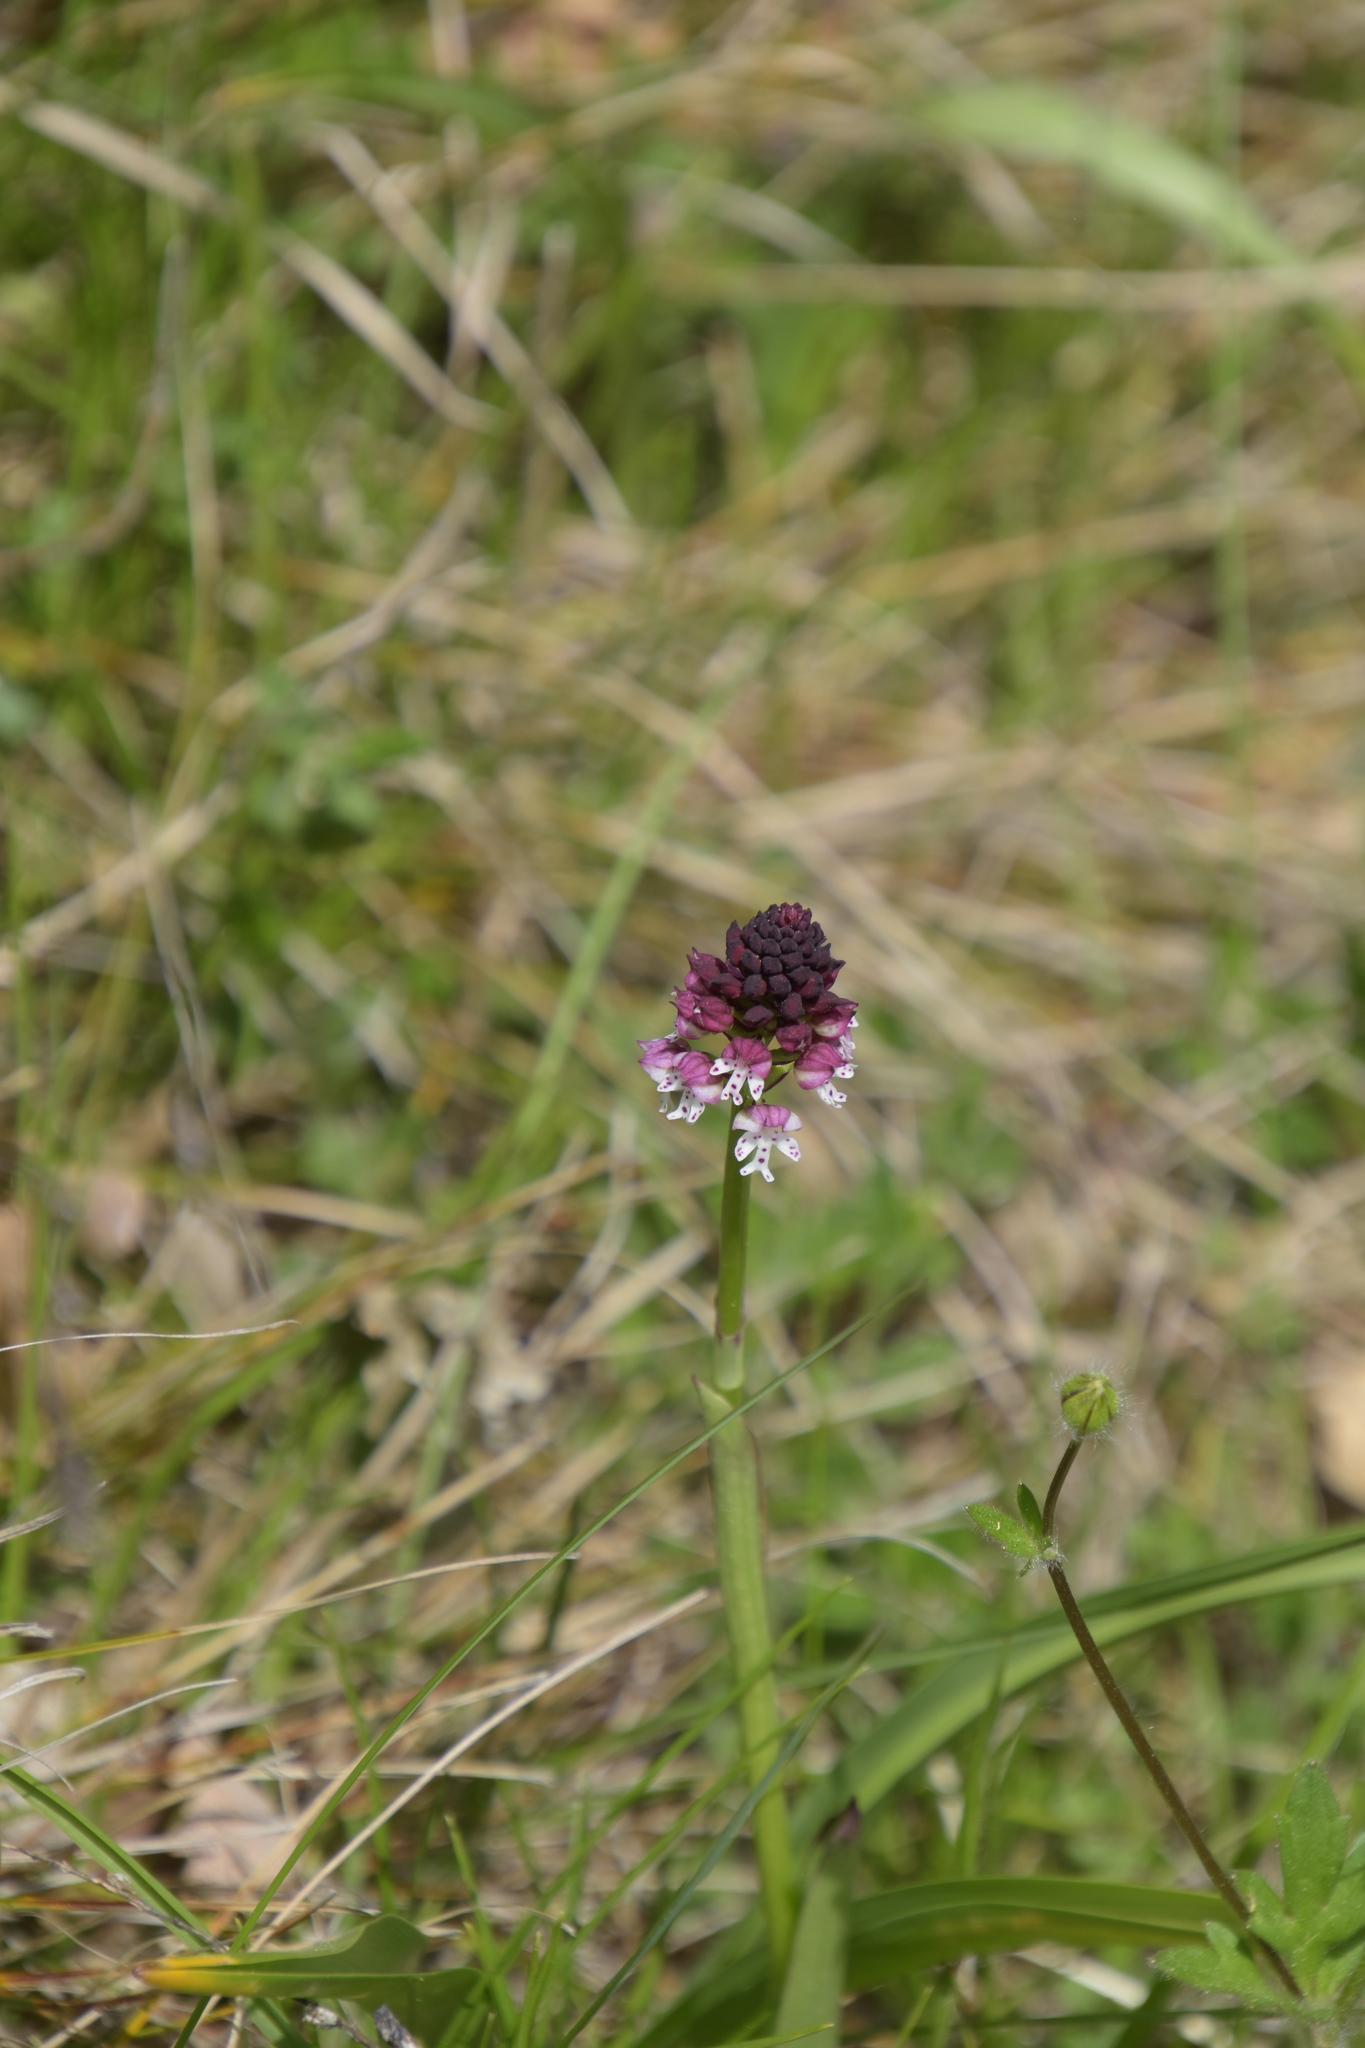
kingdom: Plantae
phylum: Tracheophyta
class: Liliopsida
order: Asparagales
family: Orchidaceae
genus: Neotinea
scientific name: Neotinea ustulata
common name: Burnt orchid
